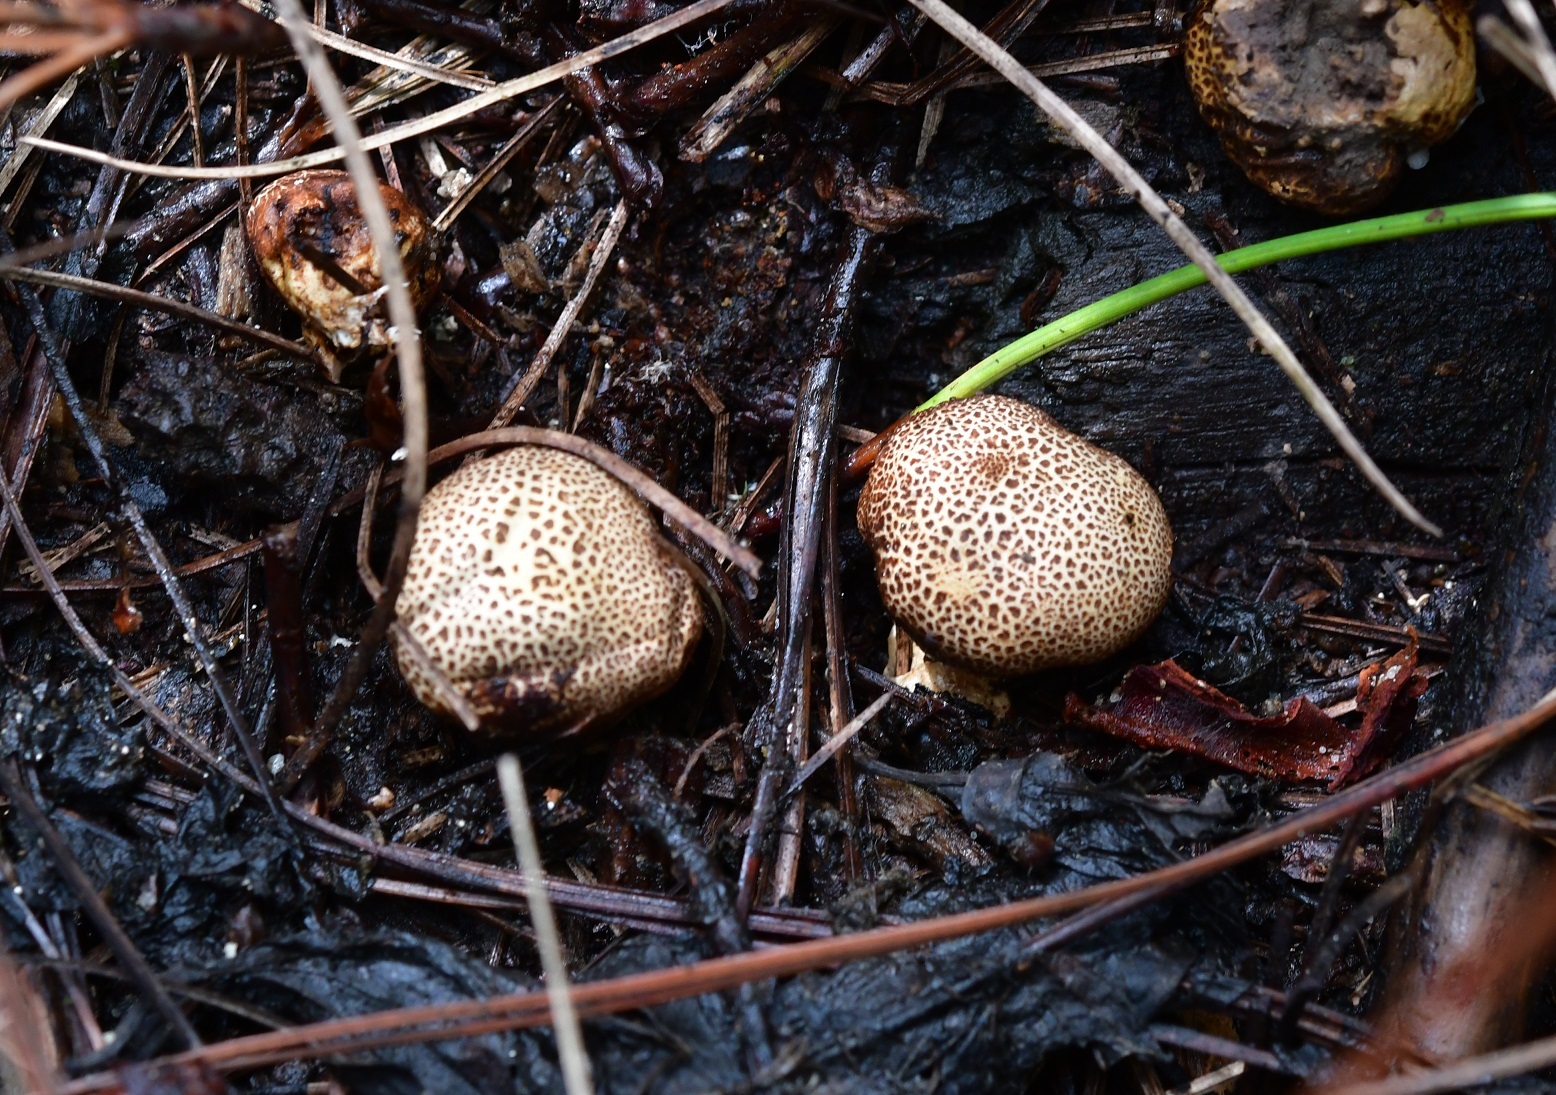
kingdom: Fungi
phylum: Basidiomycota
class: Agaricomycetes
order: Boletales
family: Sclerodermataceae
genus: Scleroderma
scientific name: Scleroderma areolatum
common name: Leopard earthball
